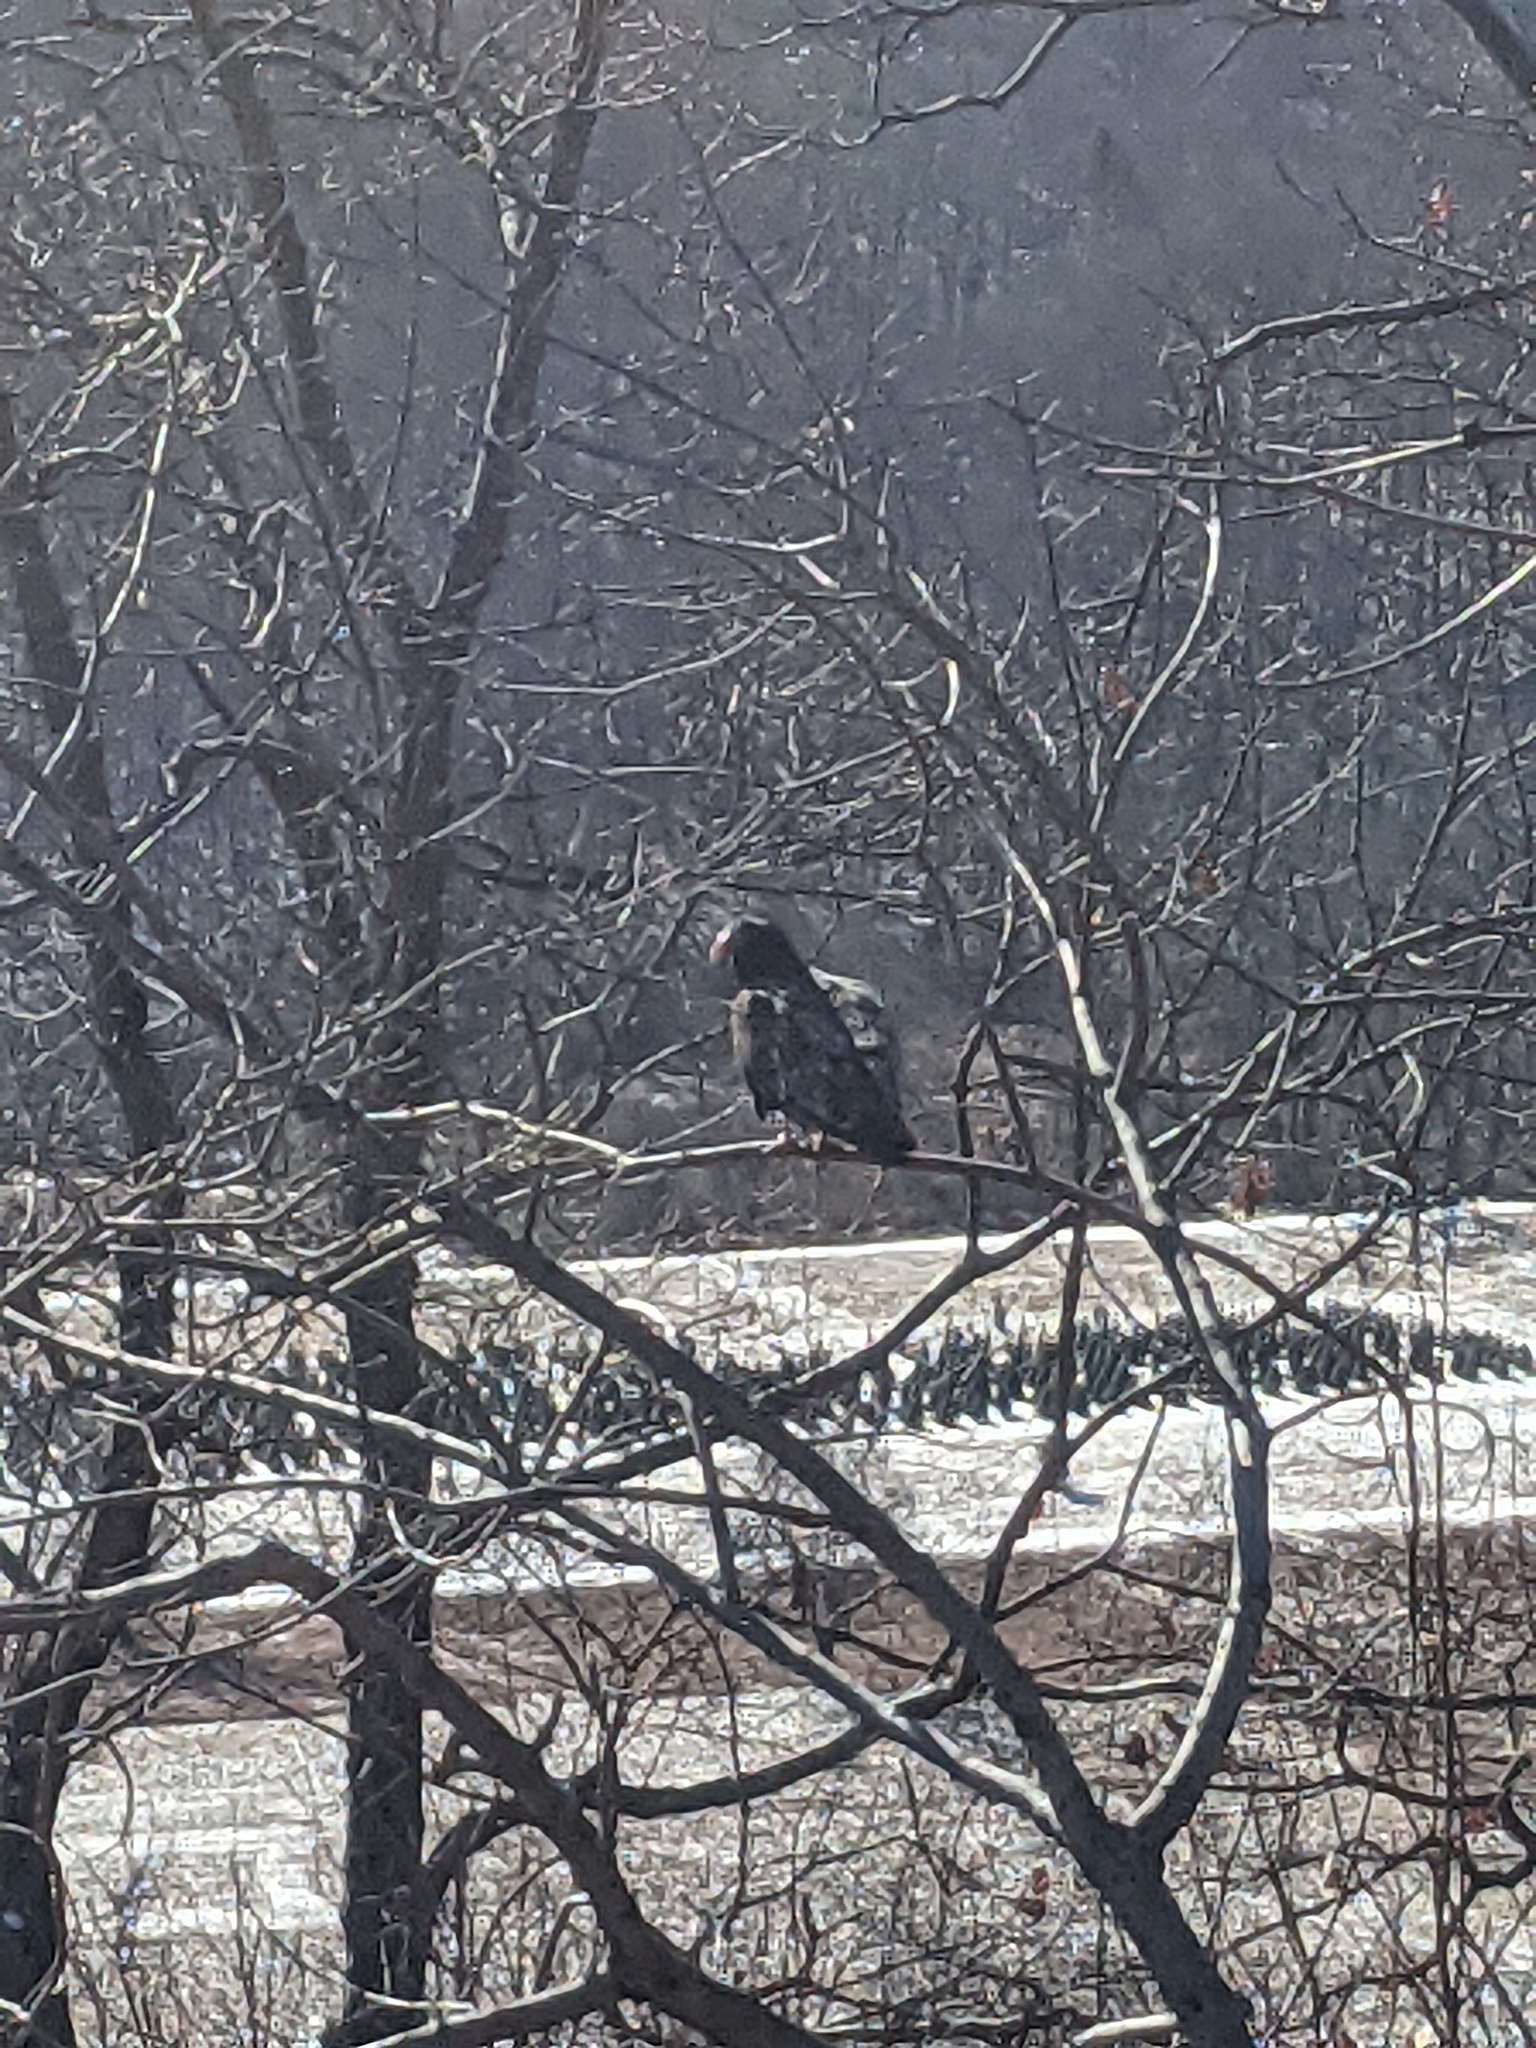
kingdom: Animalia
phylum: Chordata
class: Aves
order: Accipitriformes
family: Cathartidae
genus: Cathartes
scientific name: Cathartes aura
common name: Turkey vulture
